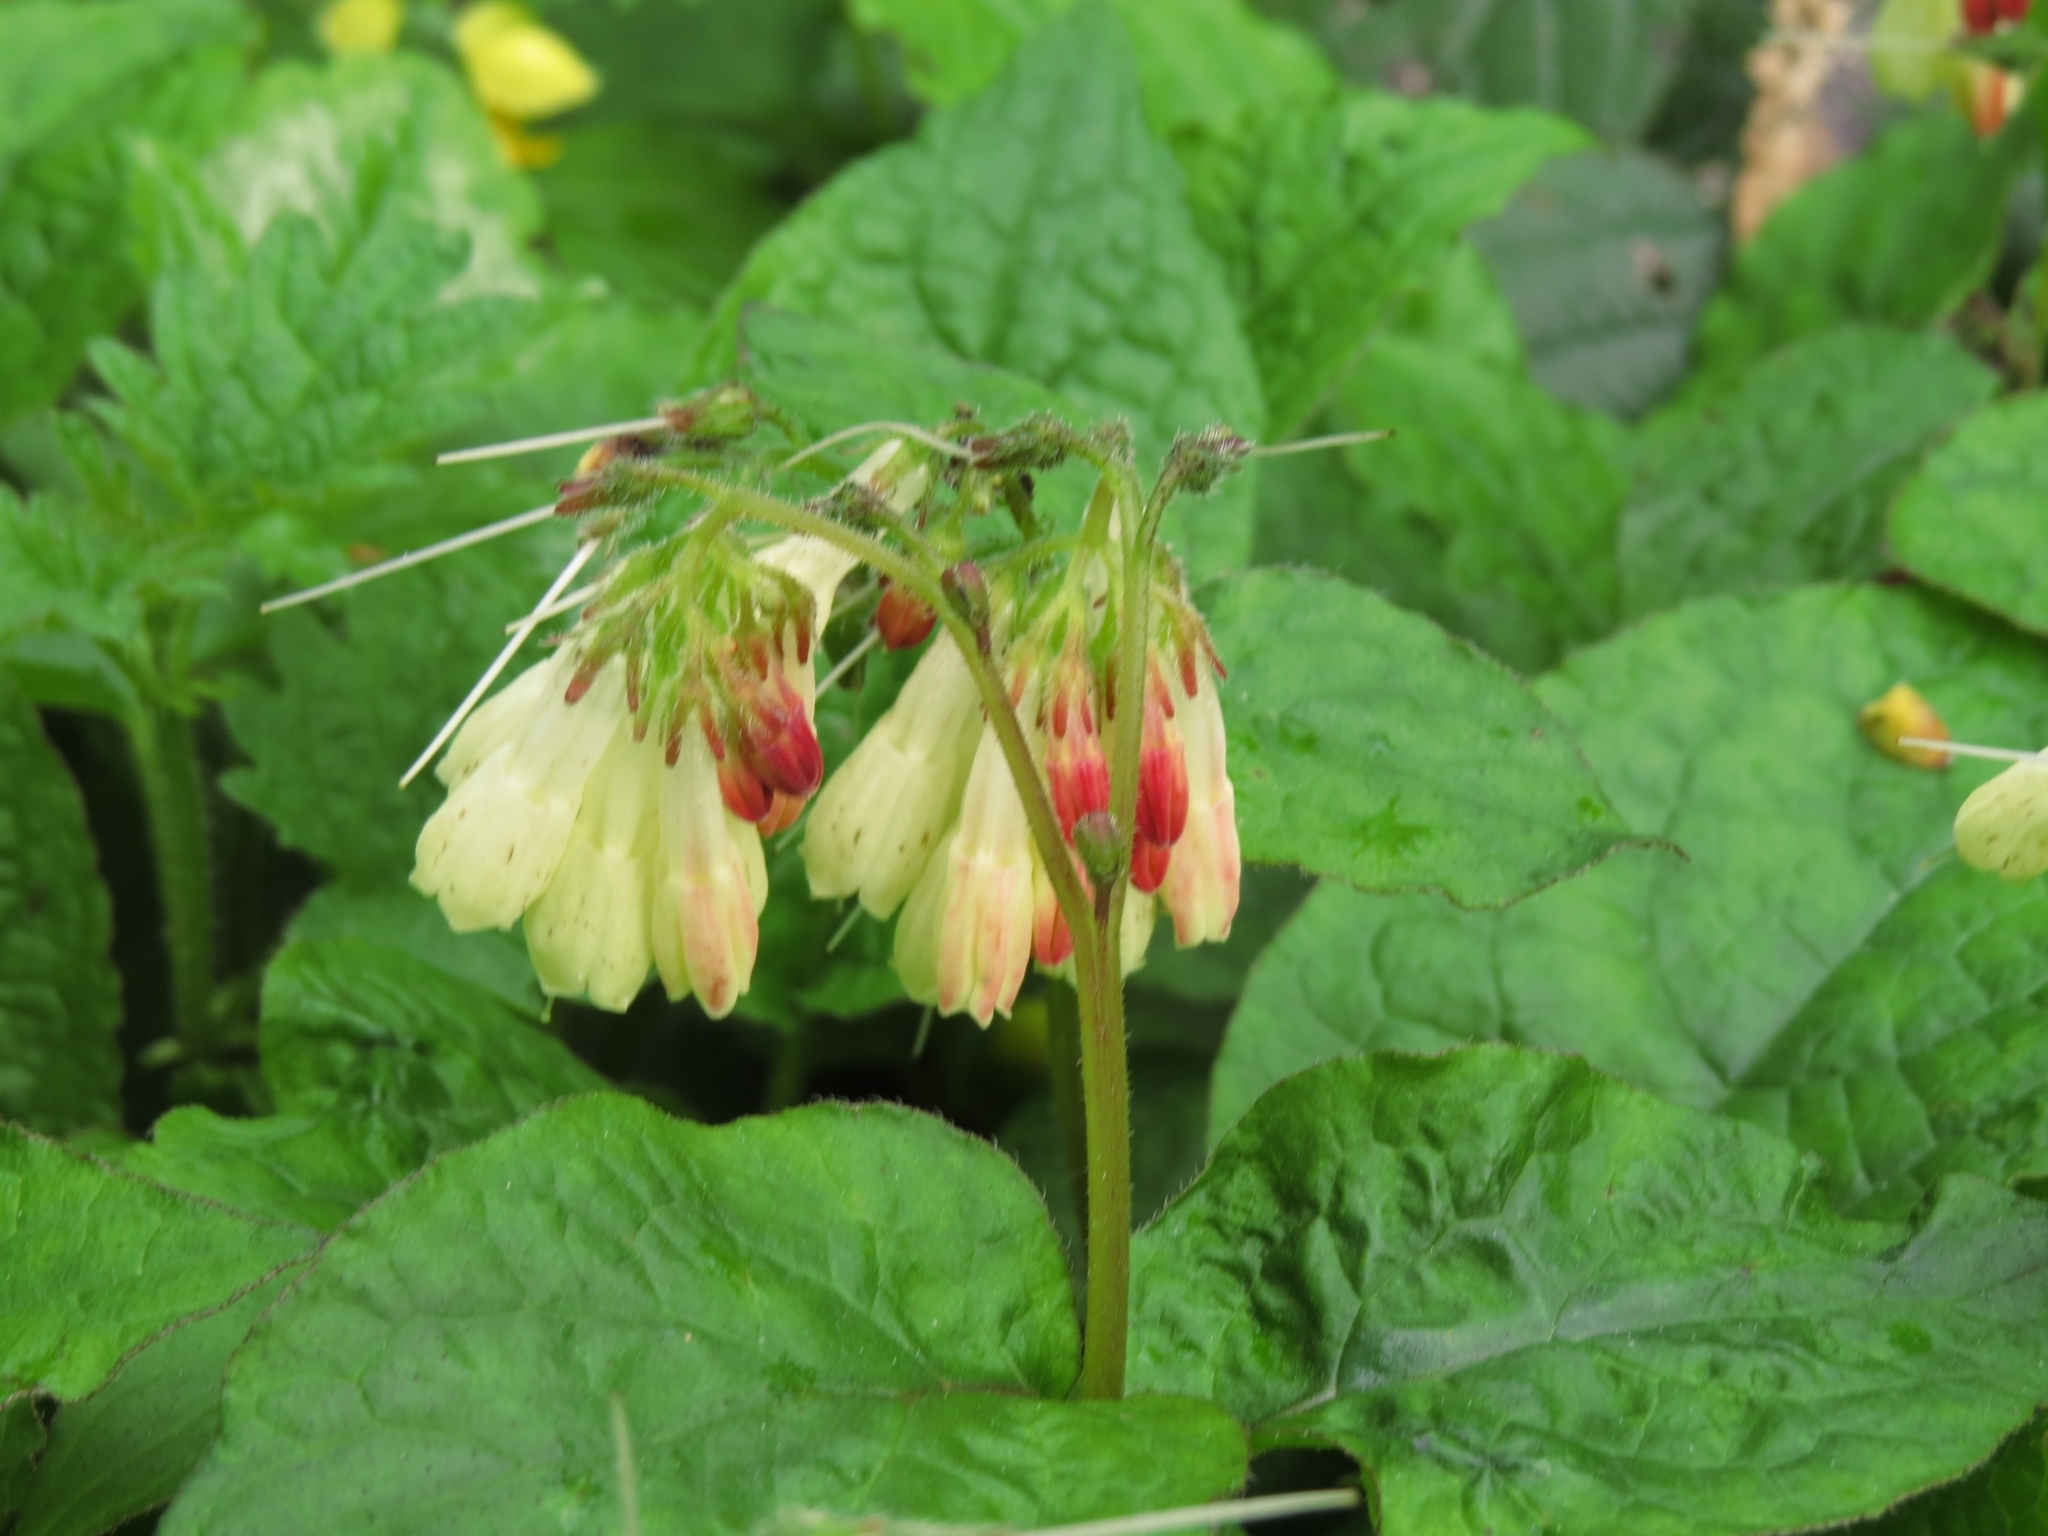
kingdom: Plantae
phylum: Tracheophyta
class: Magnoliopsida
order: Boraginales
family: Boraginaceae
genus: Symphytum
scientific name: Symphytum grandiflorum
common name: Creeping comfrey
